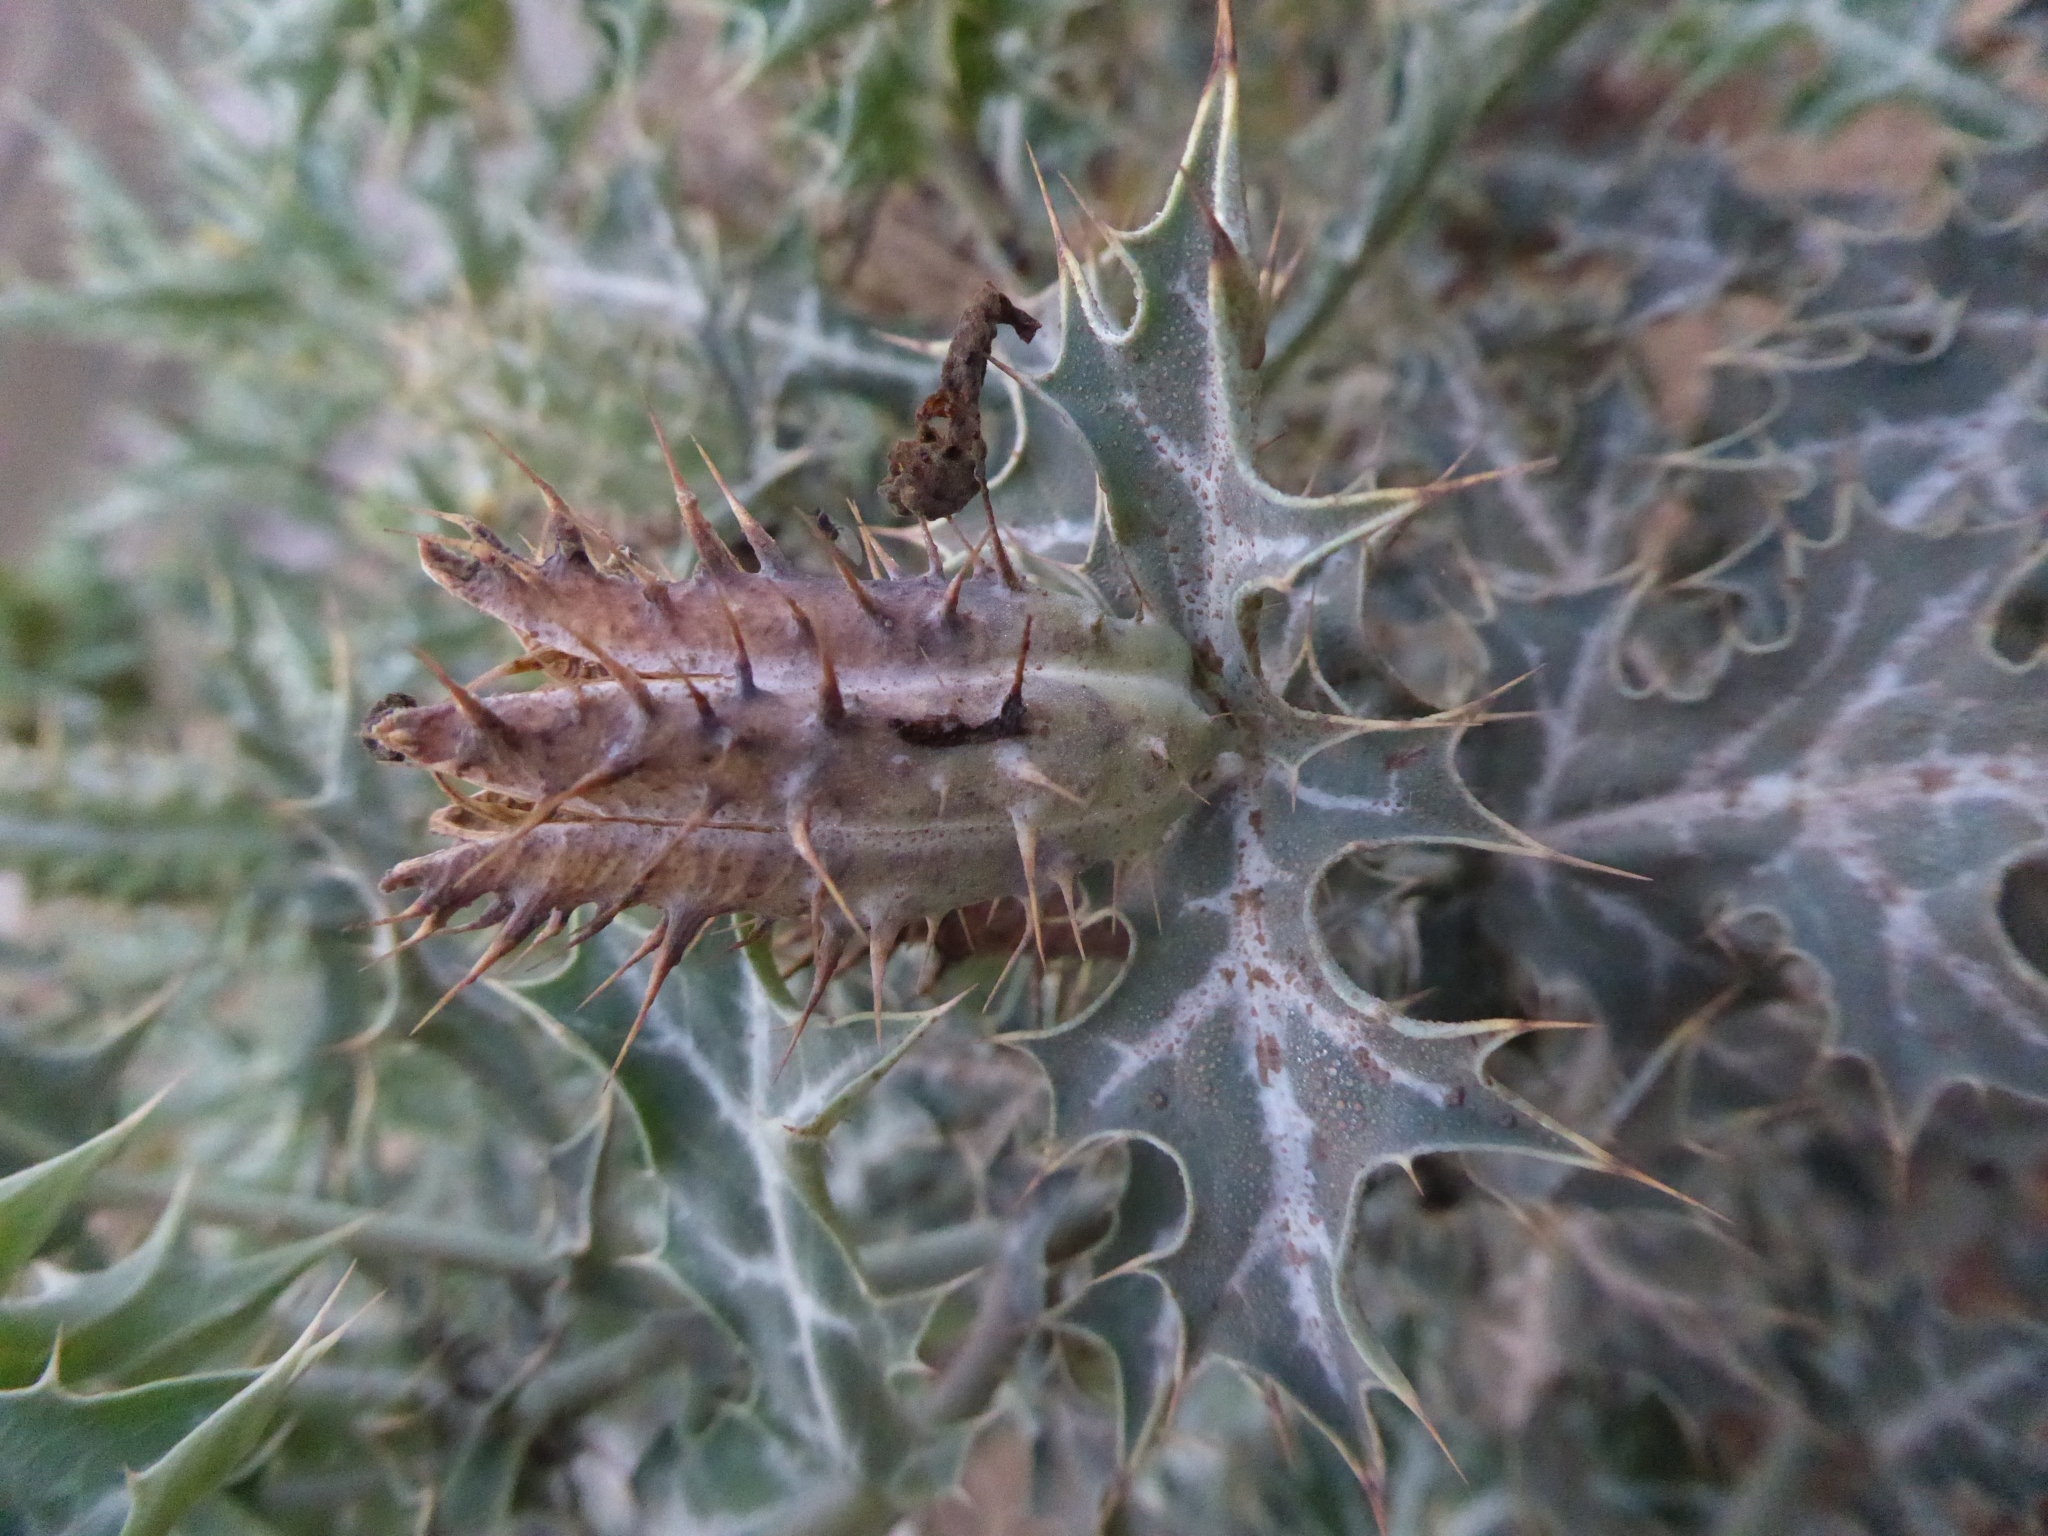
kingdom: Plantae
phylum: Tracheophyta
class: Magnoliopsida
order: Ranunculales
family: Papaveraceae
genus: Argemone
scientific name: Argemone mexicana
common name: Mexican poppy
